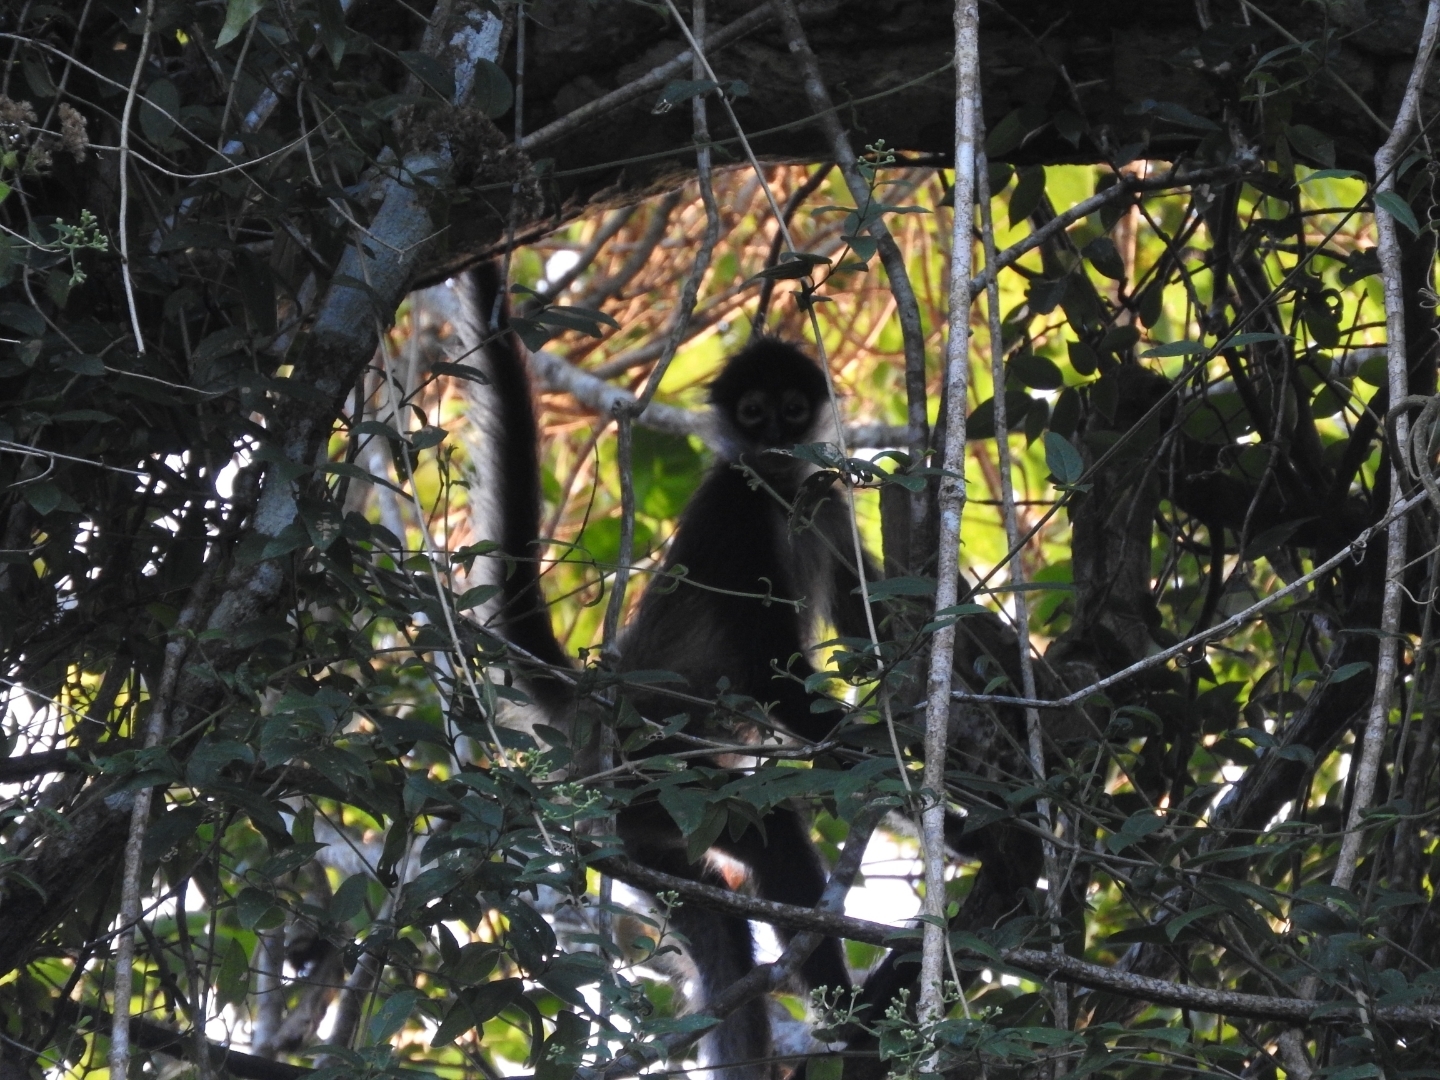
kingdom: Animalia
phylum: Chordata
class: Mammalia
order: Primates
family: Atelidae
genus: Ateles
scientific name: Ateles geoffroyi
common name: Black-handed spider monkey
